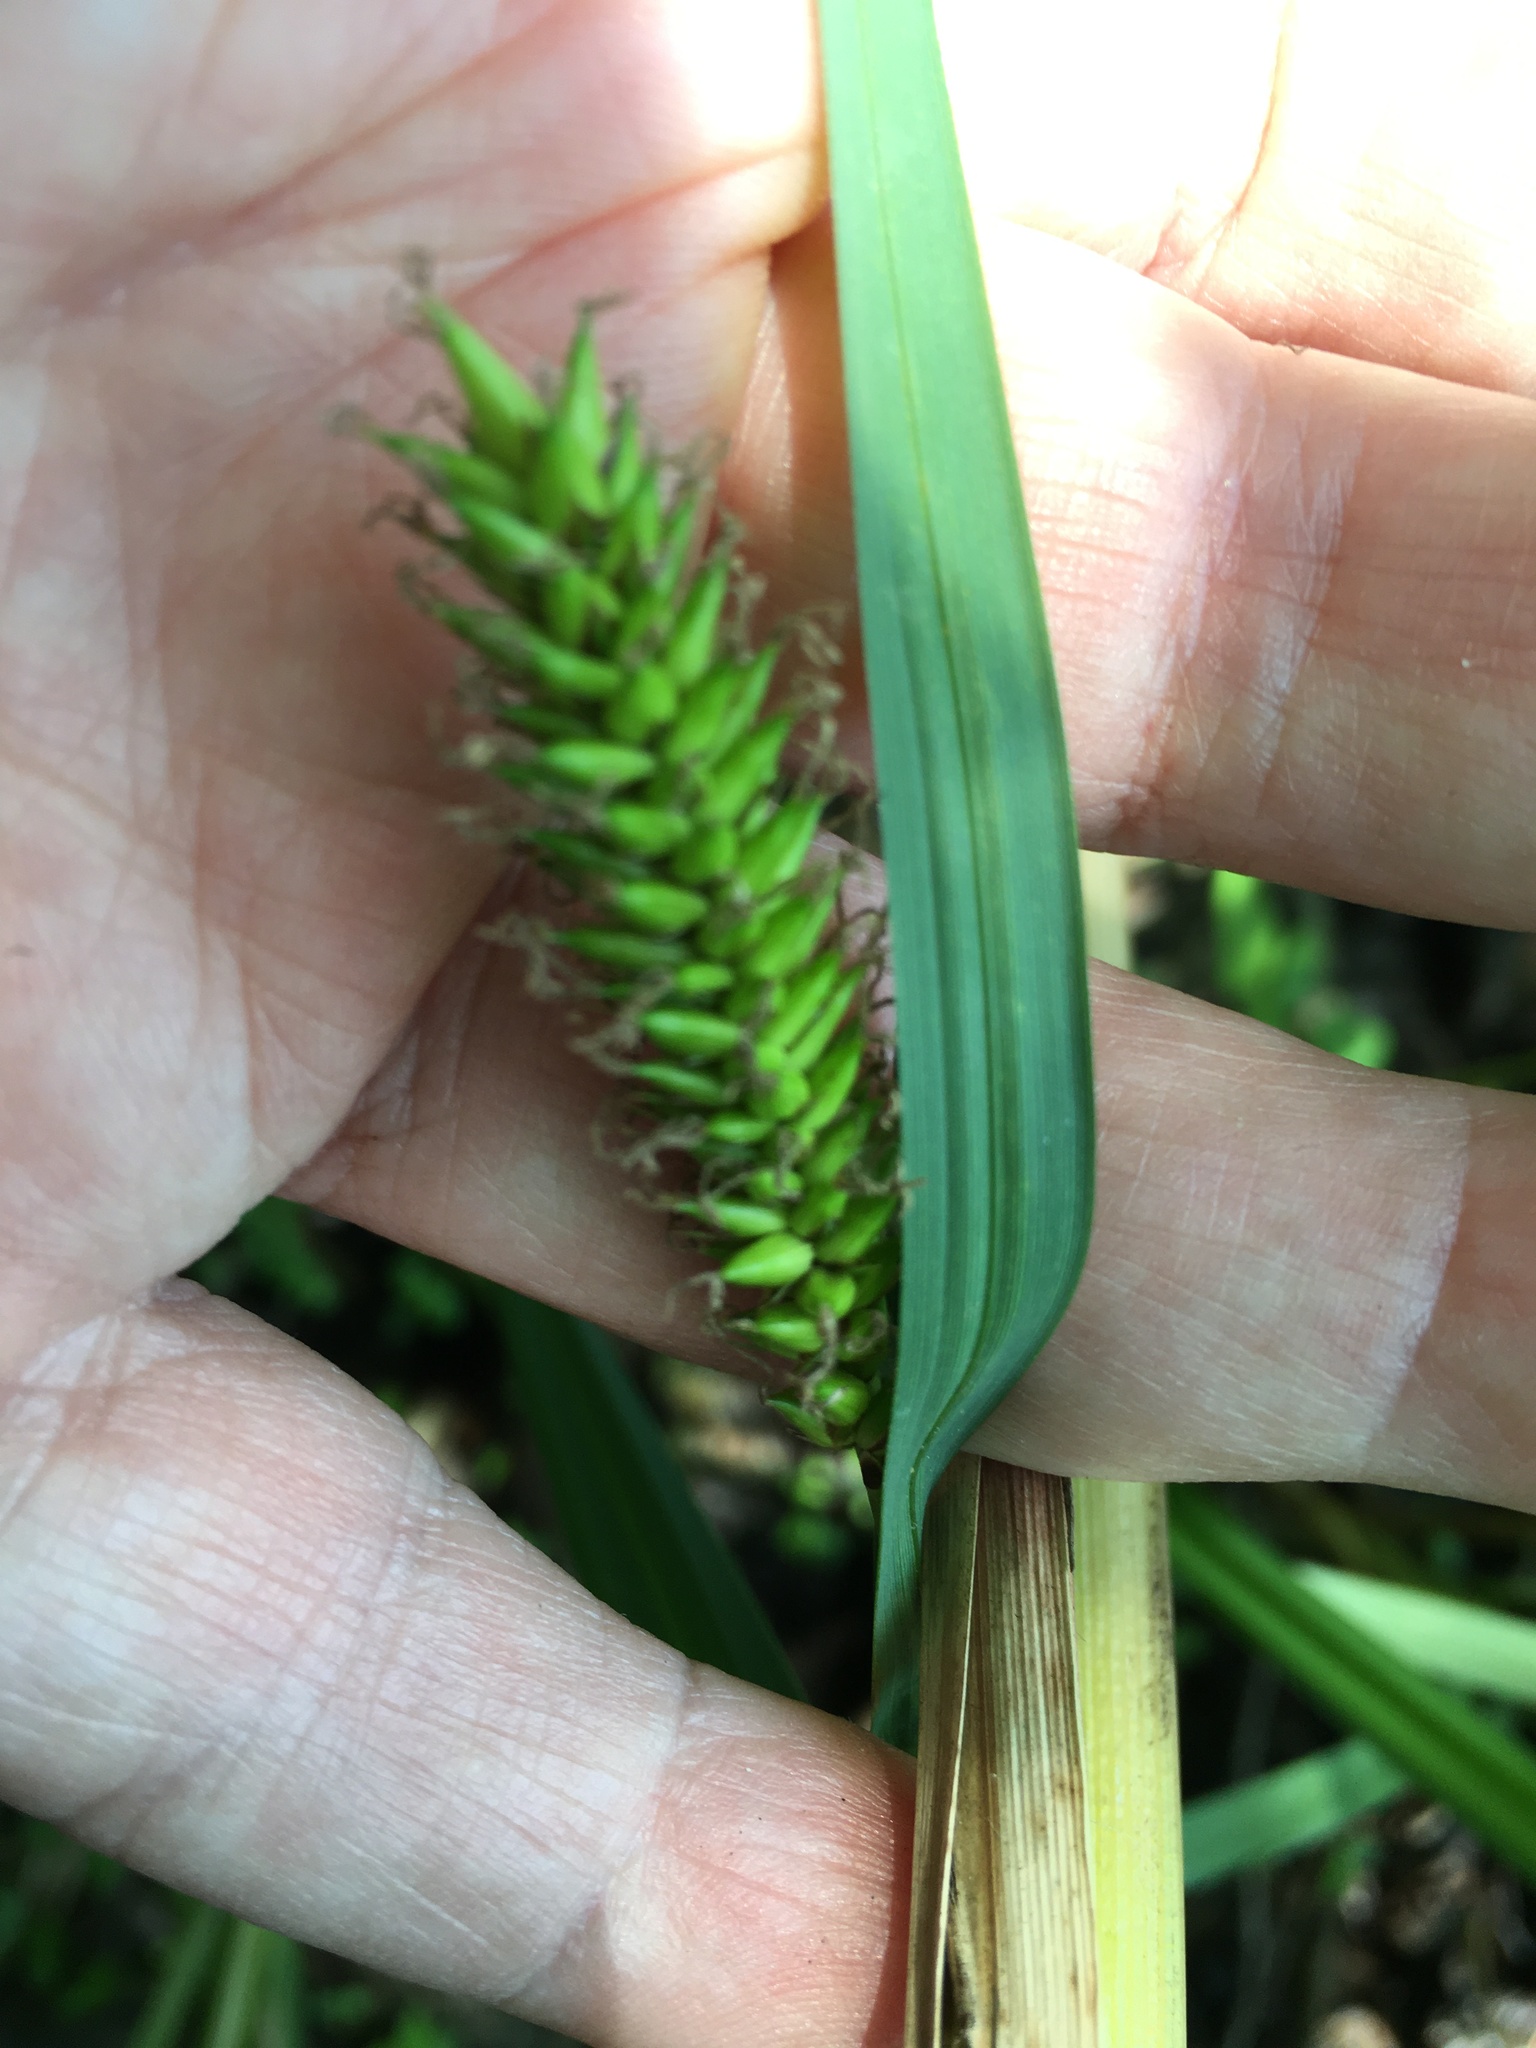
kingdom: Plantae
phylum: Tracheophyta
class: Liliopsida
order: Poales
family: Cyperaceae
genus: Carex
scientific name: Carex lacustris
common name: Common lake sedge
